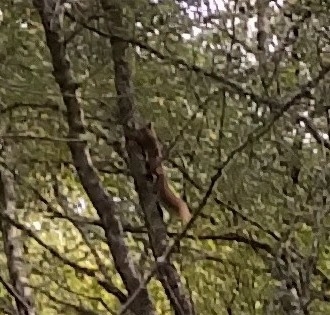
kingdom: Animalia
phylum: Chordata
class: Mammalia
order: Rodentia
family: Sciuridae
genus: Sciurus
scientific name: Sciurus vulgaris
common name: Eurasian red squirrel
